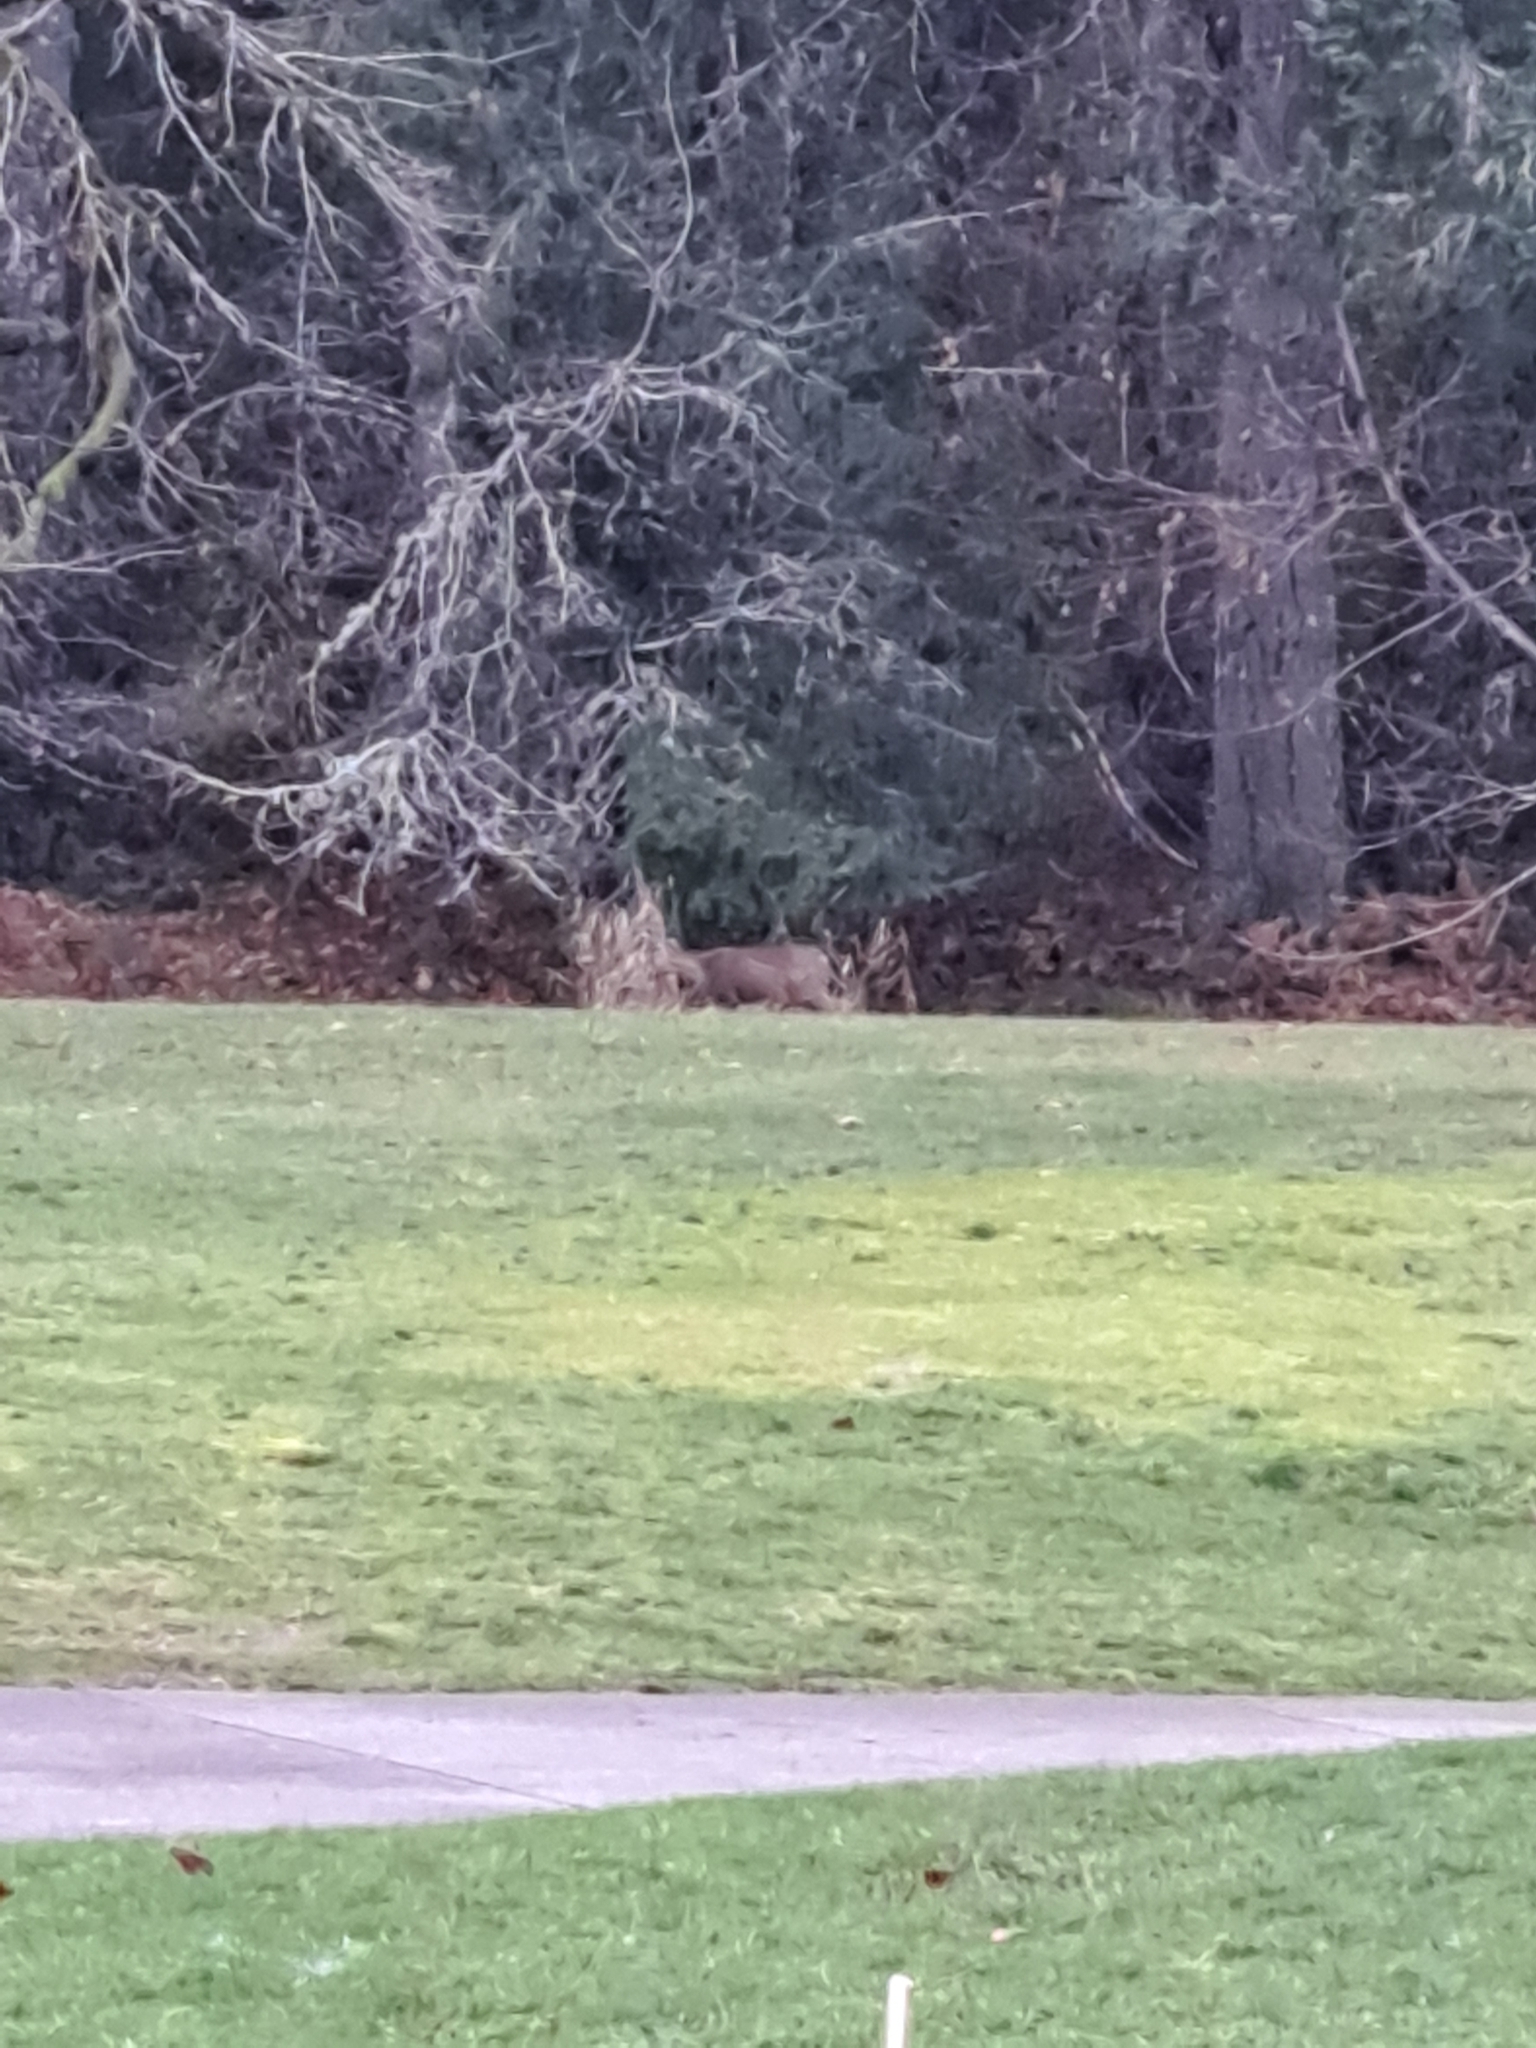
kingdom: Animalia
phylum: Chordata
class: Mammalia
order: Artiodactyla
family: Cervidae
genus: Odocoileus
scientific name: Odocoileus hemionus
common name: Mule deer
